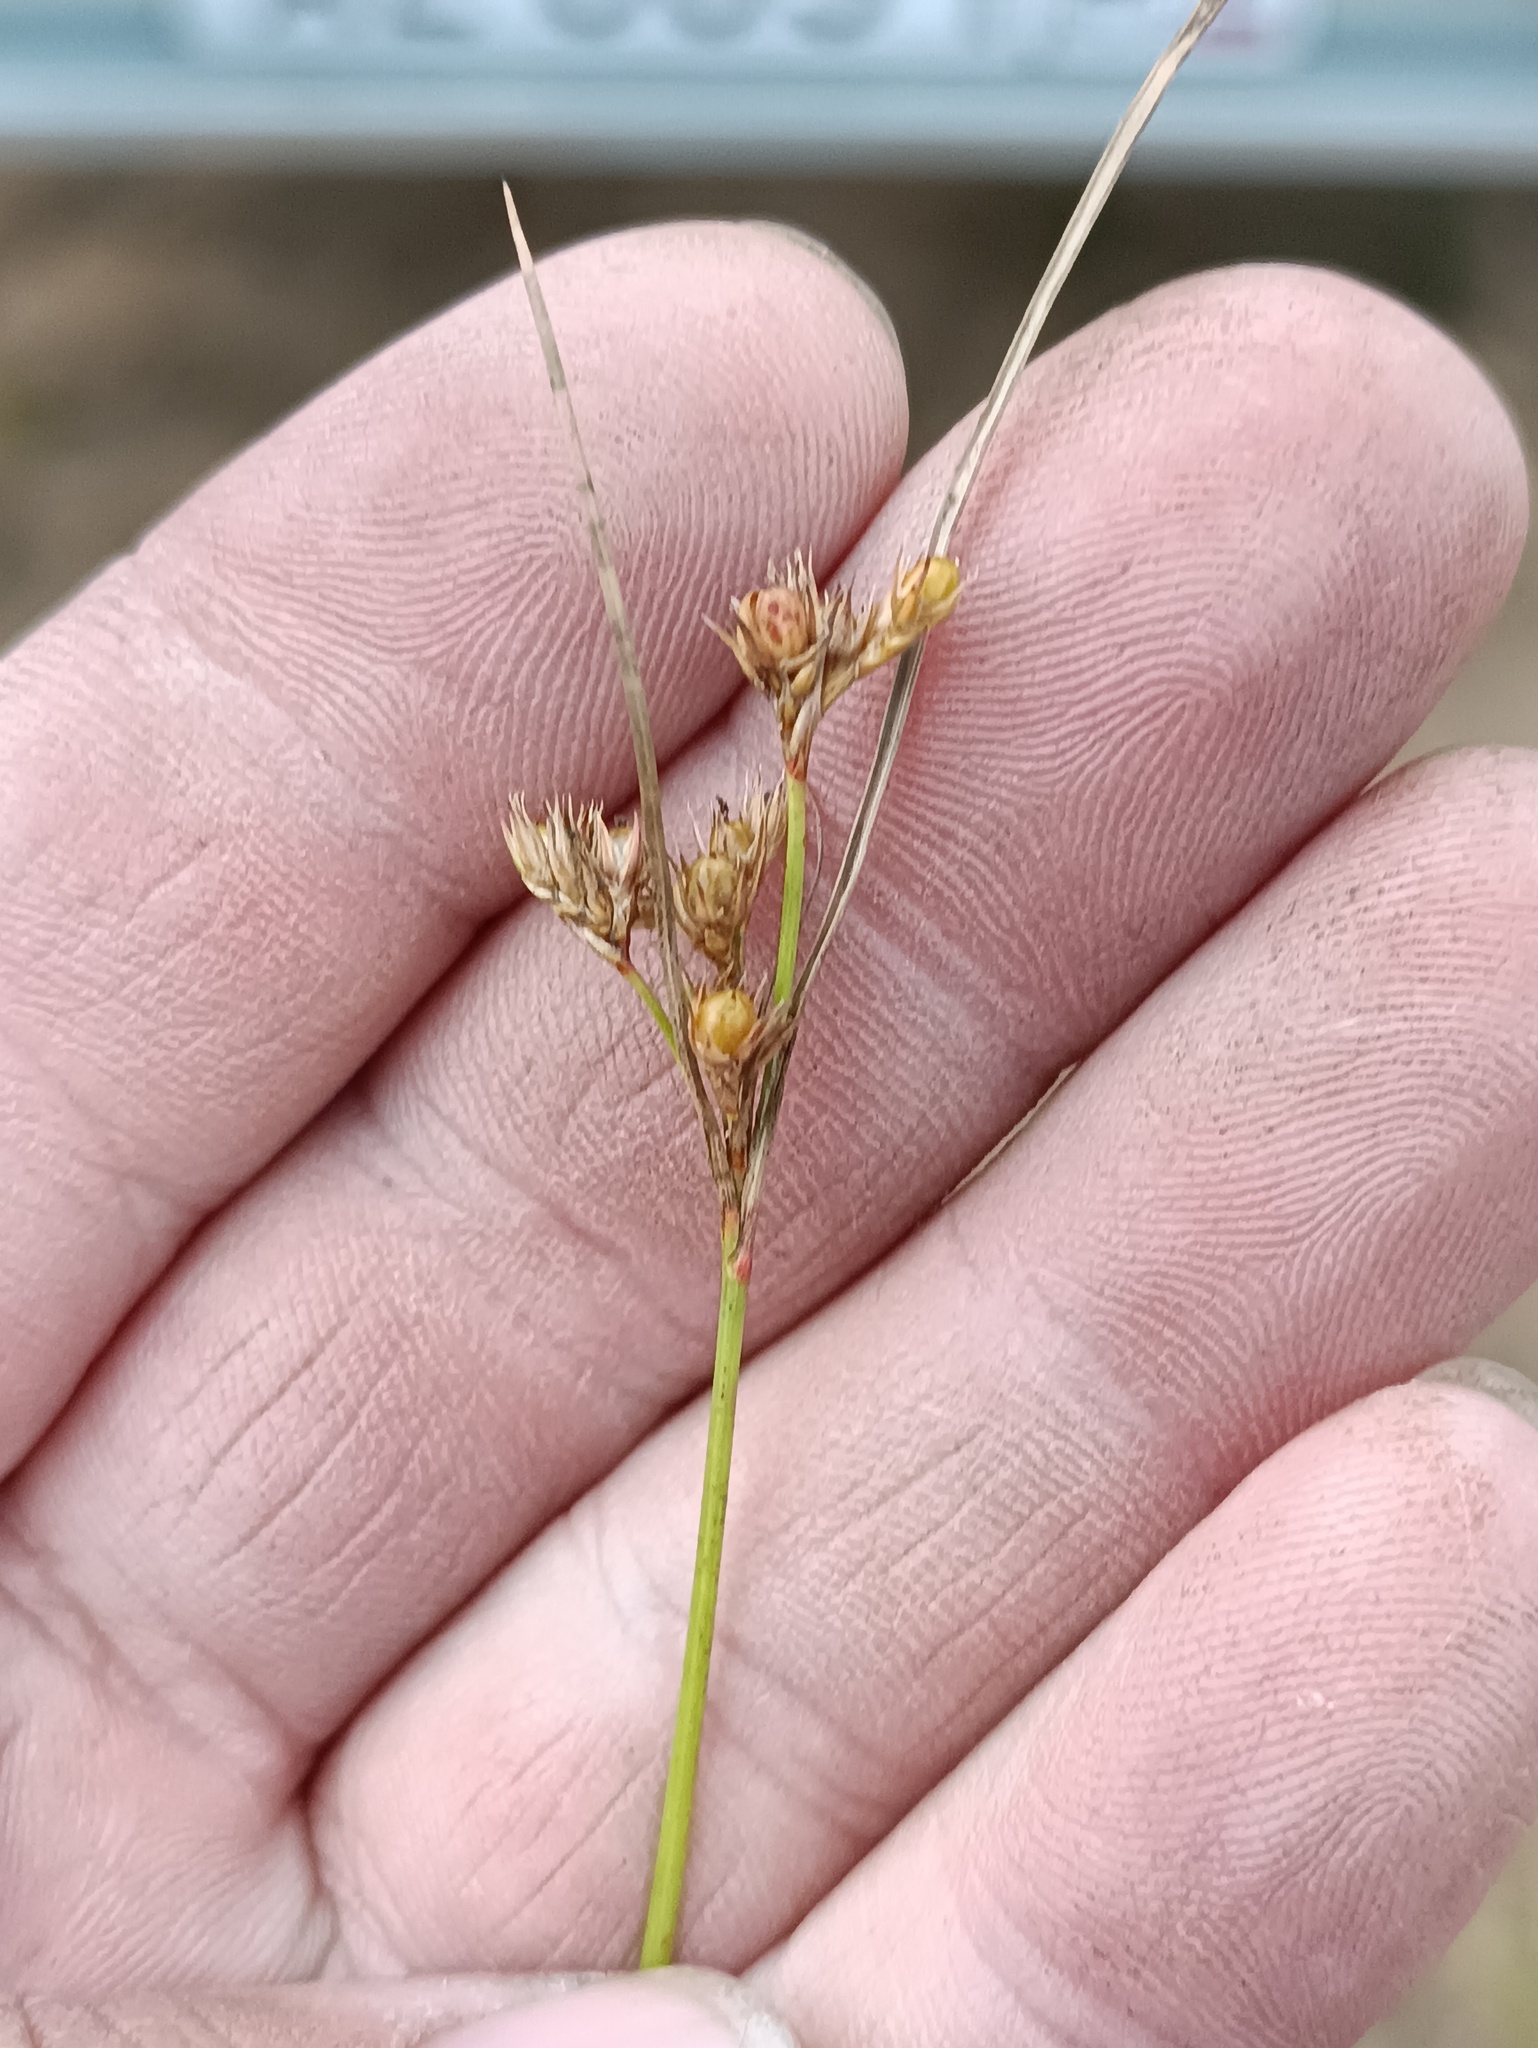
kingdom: Plantae
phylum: Tracheophyta
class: Liliopsida
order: Poales
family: Juncaceae
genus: Juncus
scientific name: Juncus tenuis
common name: Slender rush
